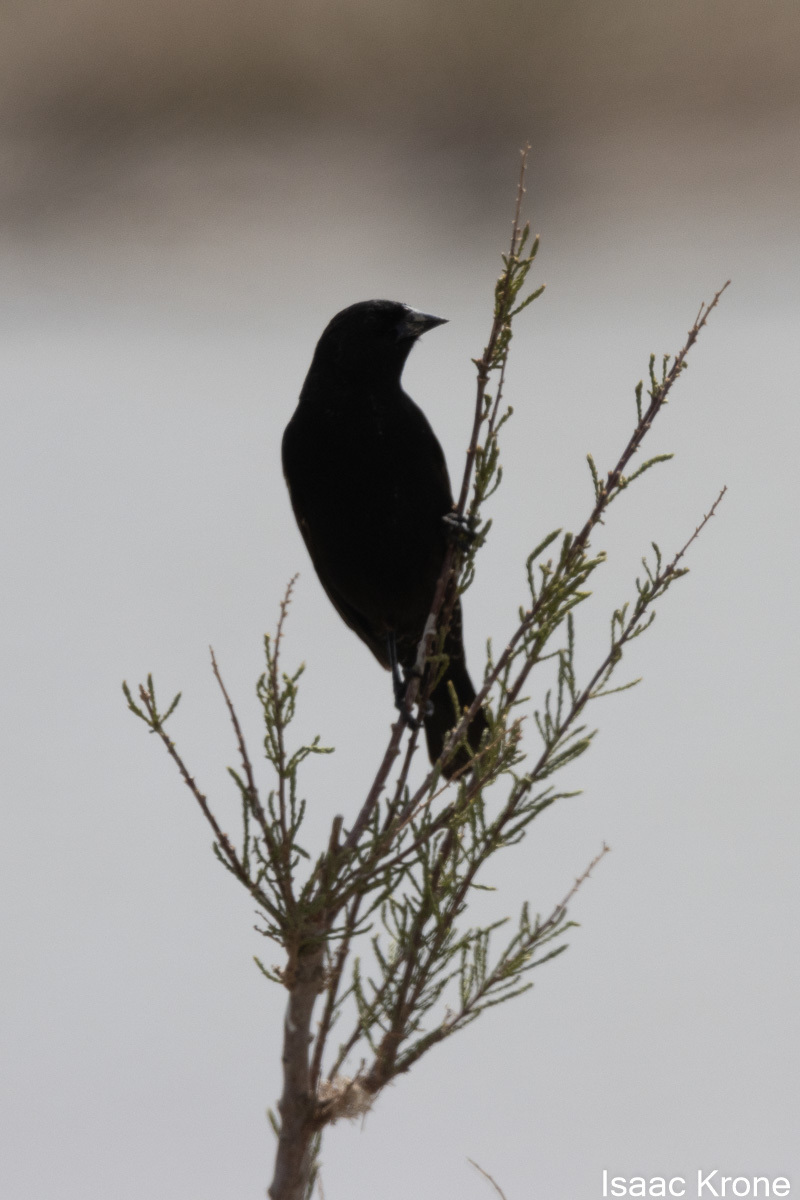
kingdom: Animalia
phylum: Chordata
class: Aves
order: Passeriformes
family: Icteridae
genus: Agelaius
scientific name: Agelaius phoeniceus
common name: Red-winged blackbird
